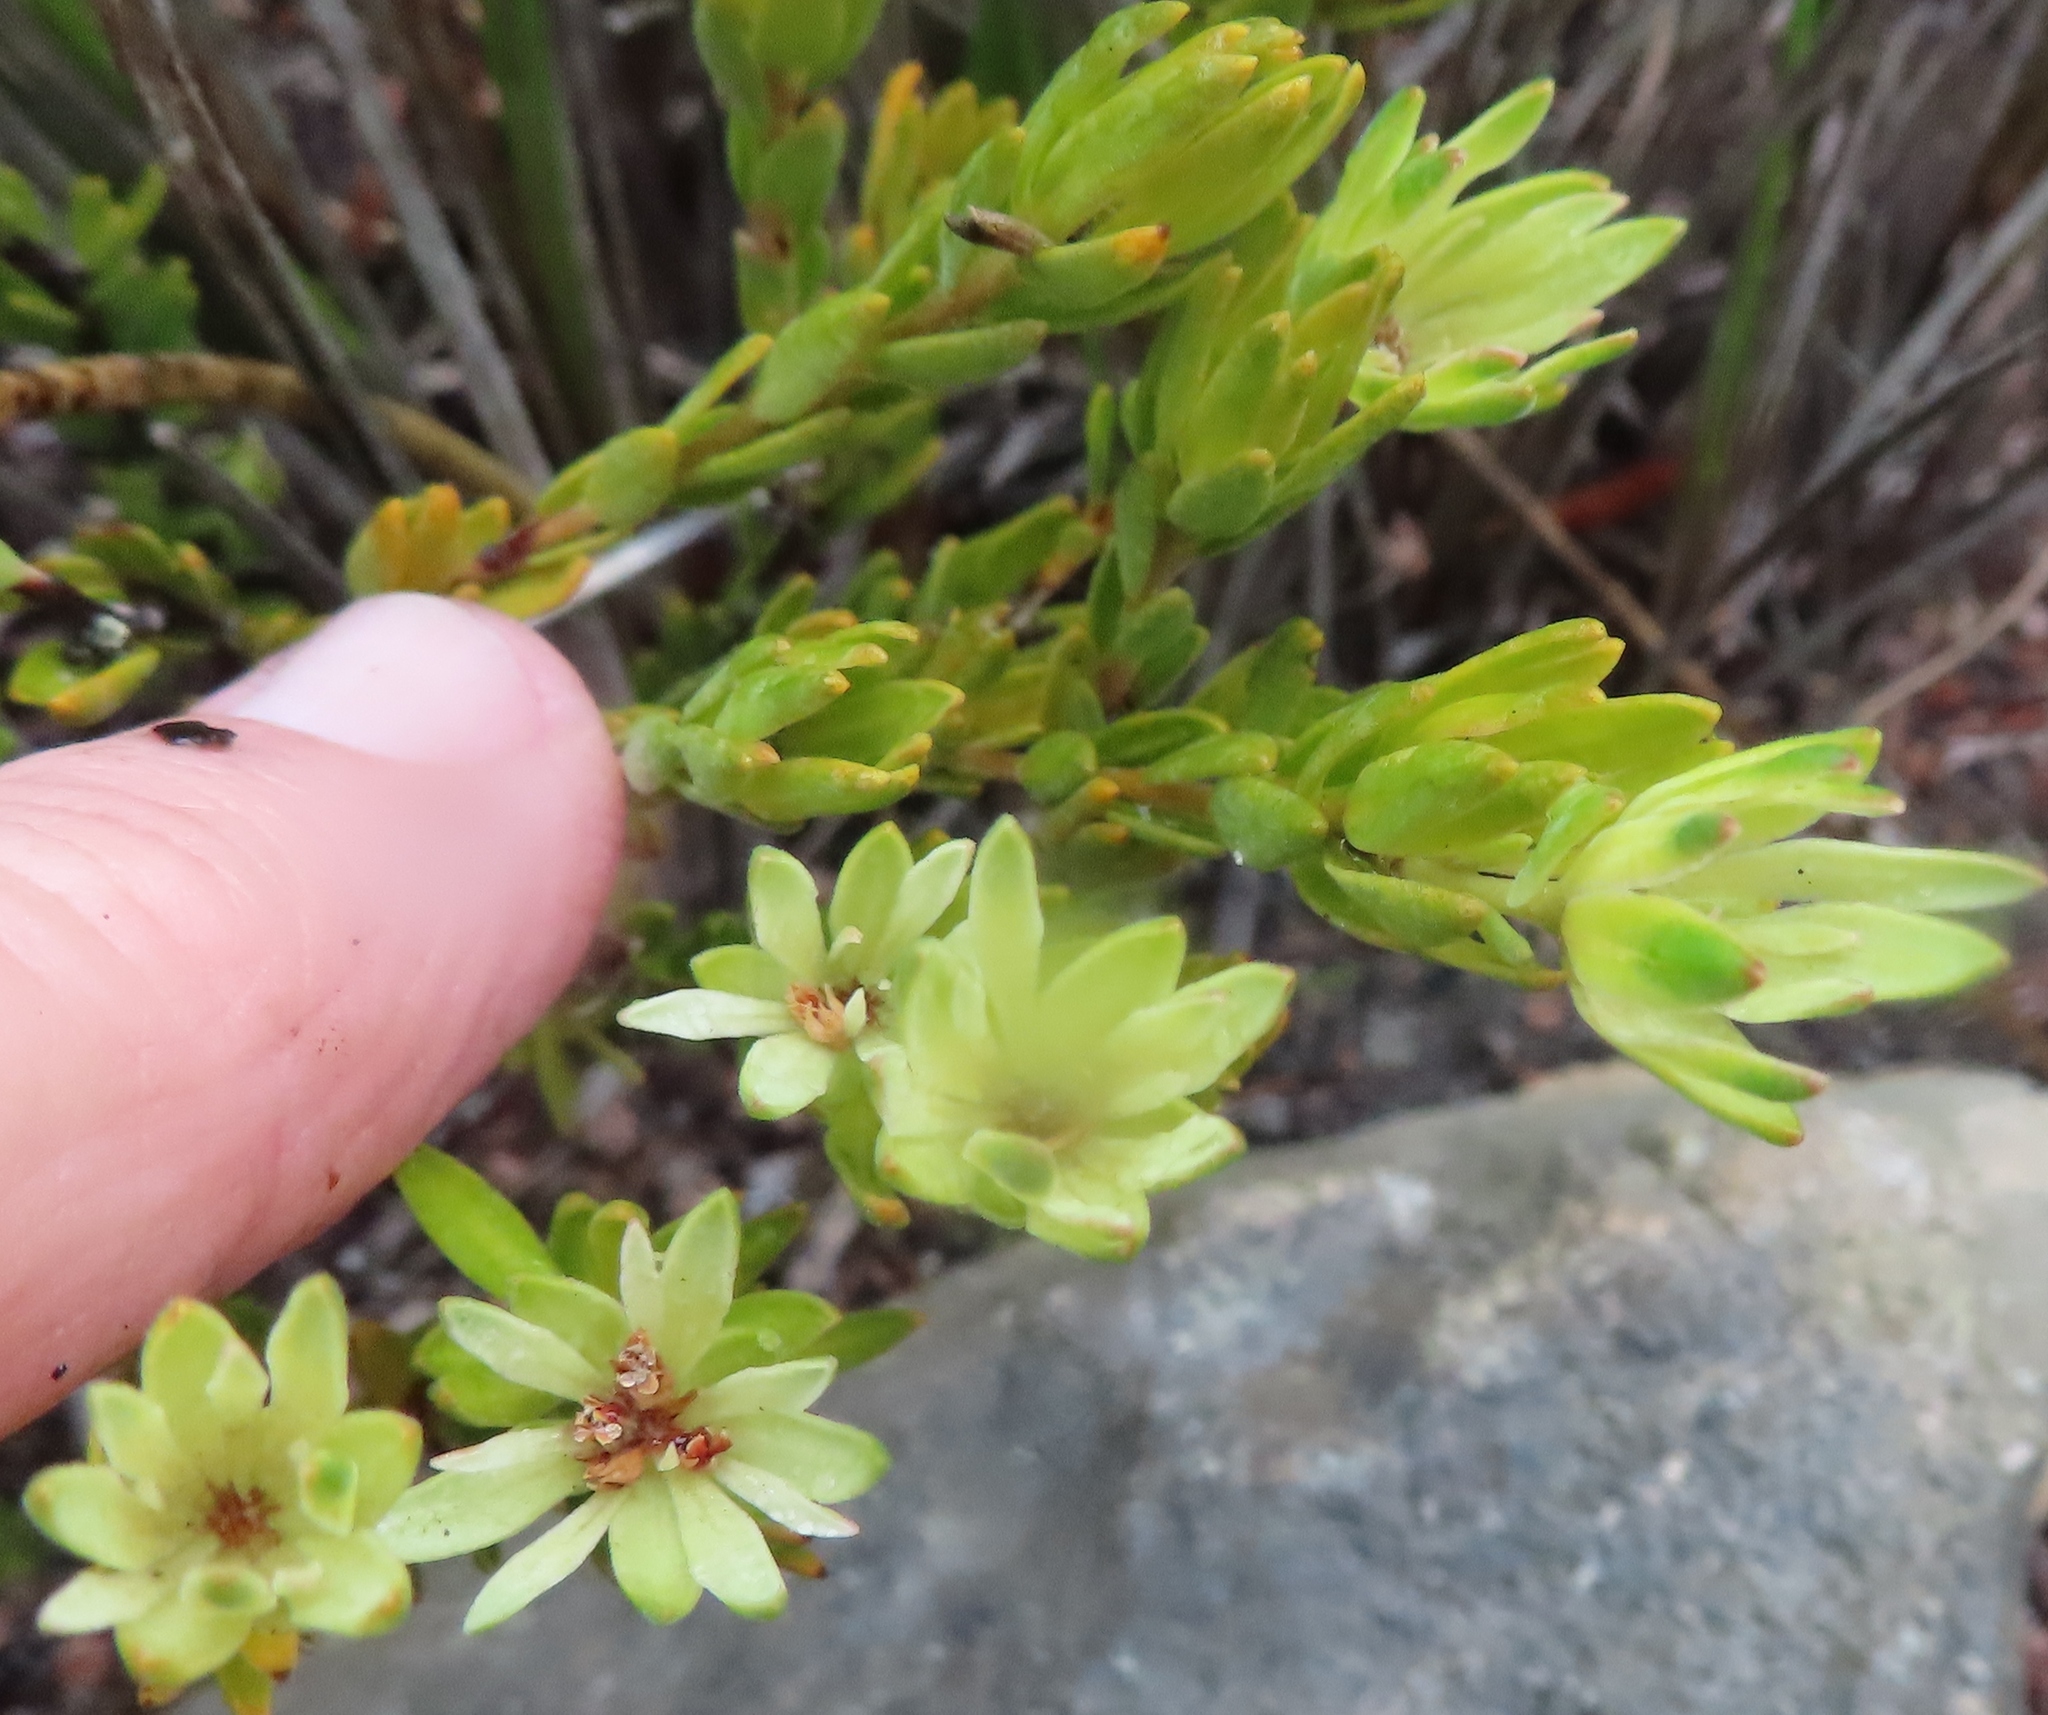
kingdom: Plantae
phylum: Tracheophyta
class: Magnoliopsida
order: Sapindales
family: Rutaceae
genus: Euchaetis
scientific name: Euchaetis longibracteata
